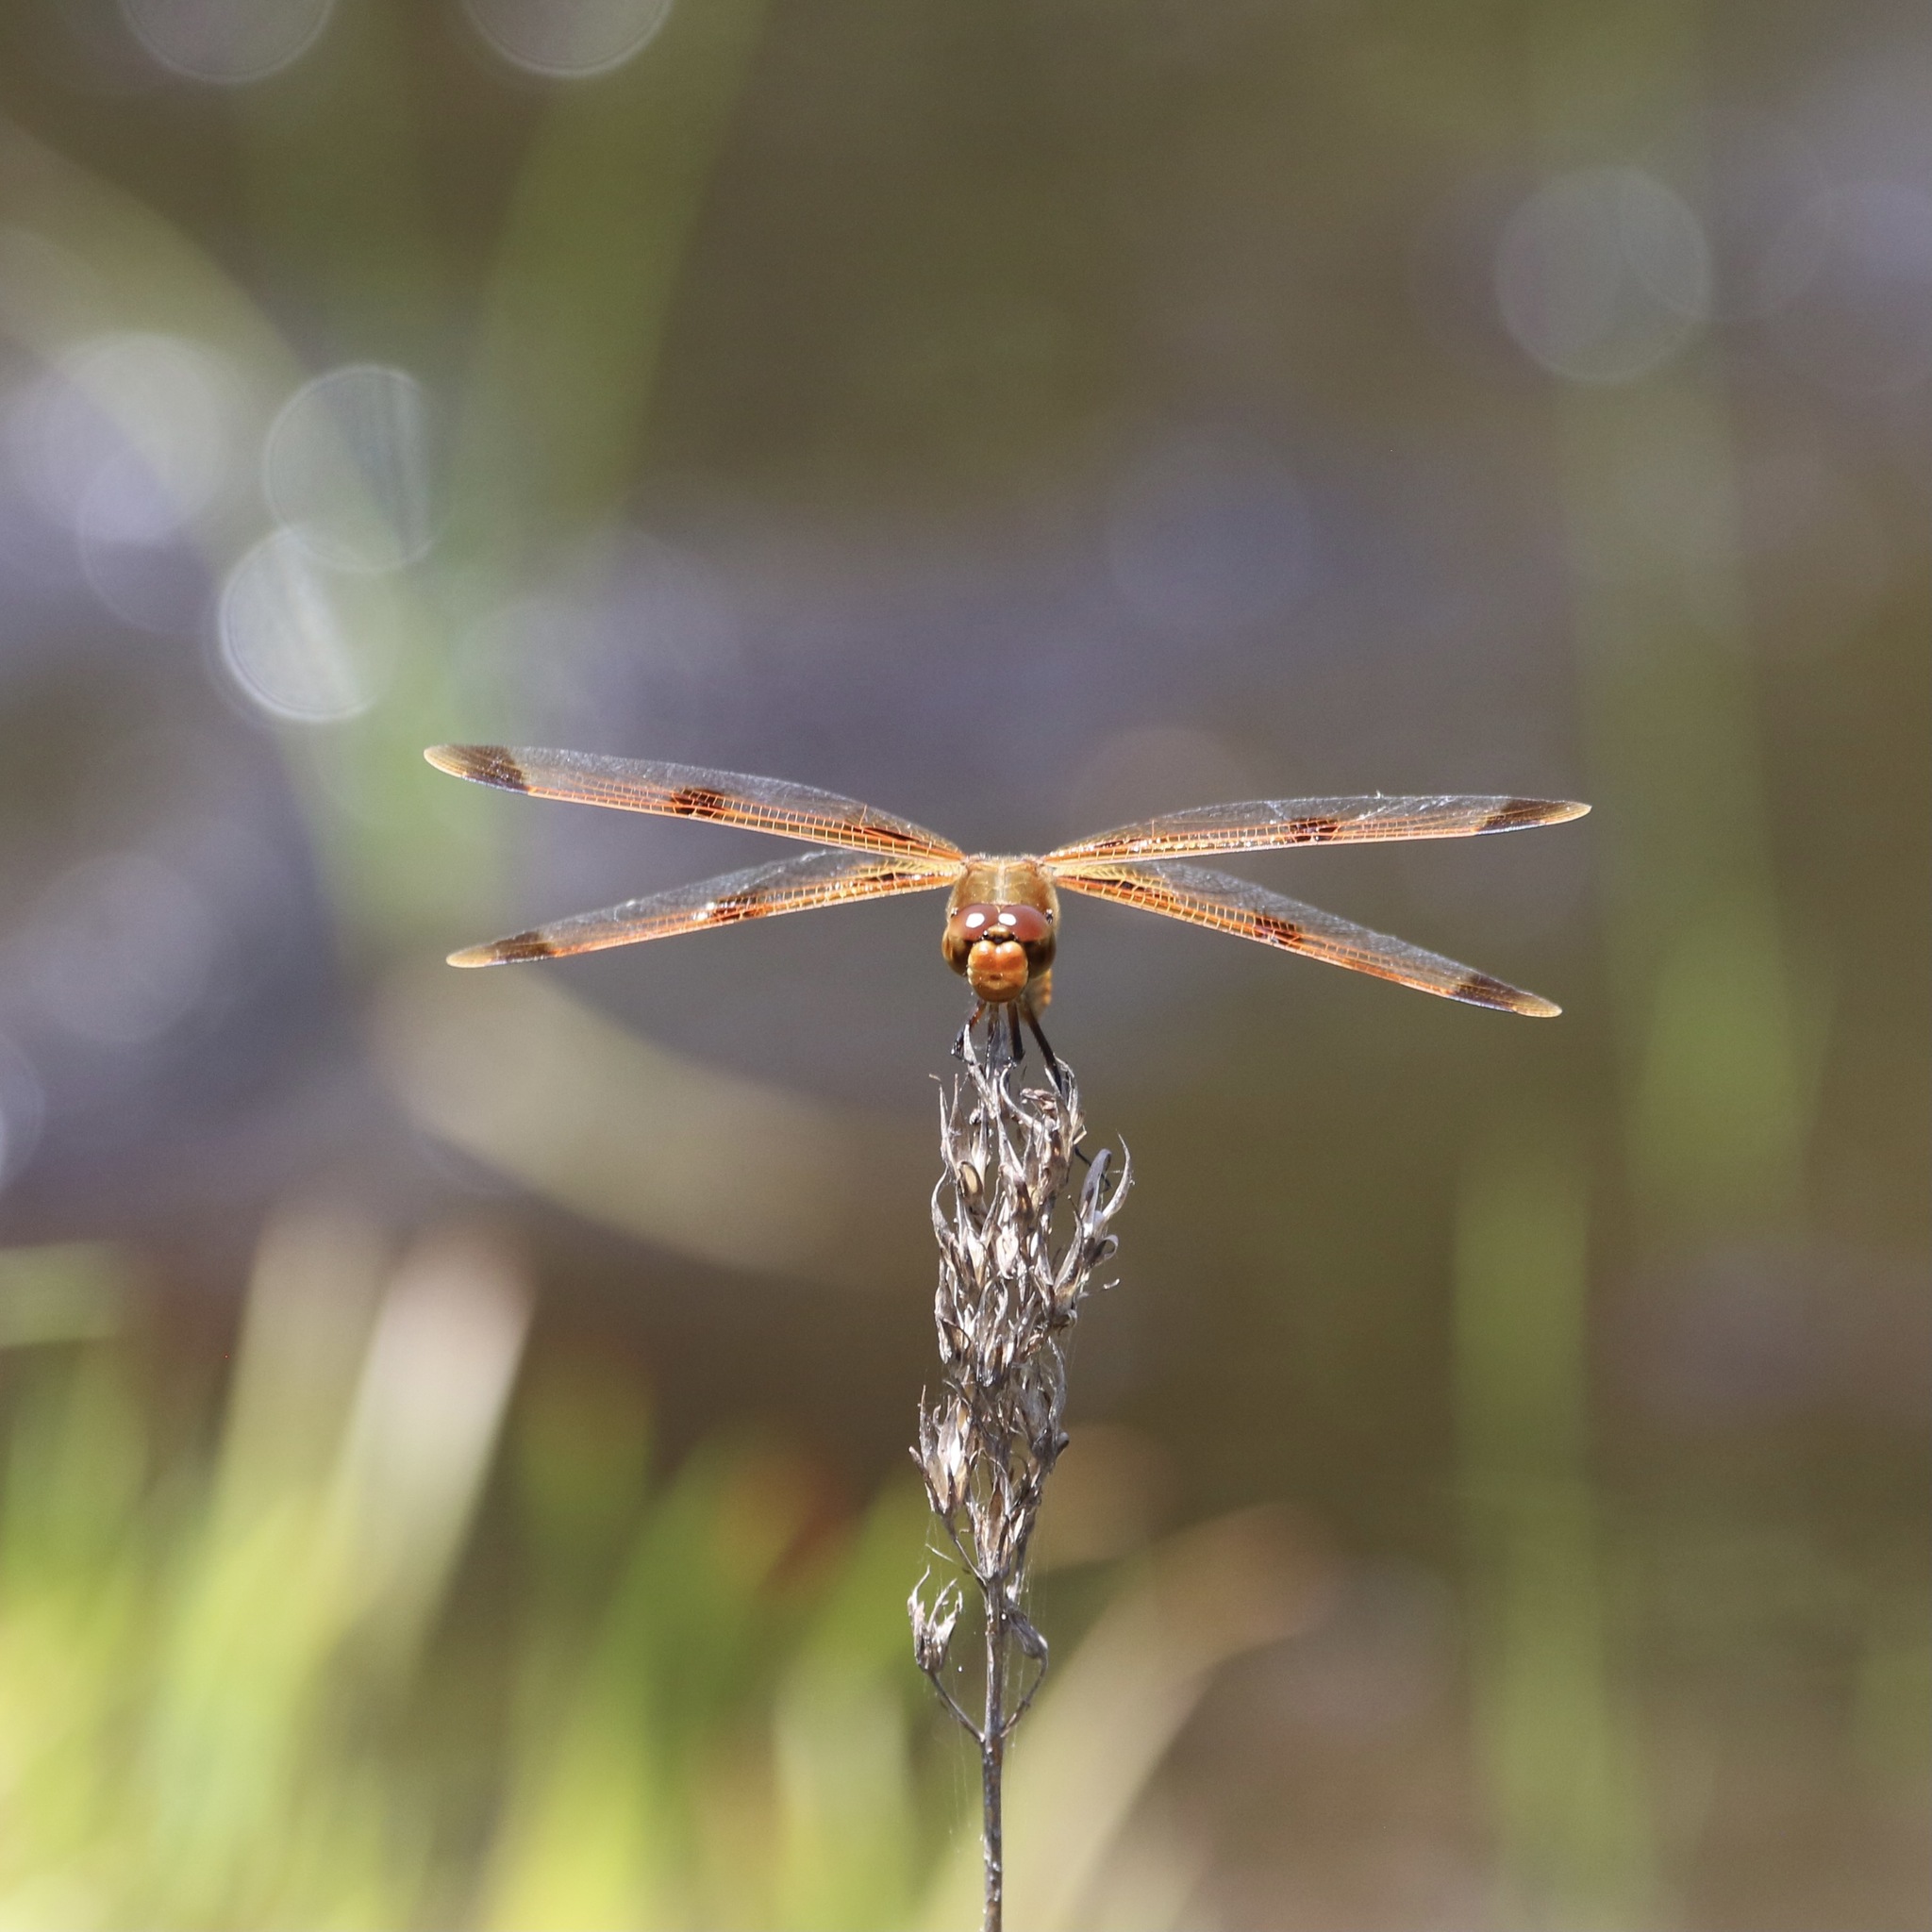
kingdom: Animalia
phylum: Arthropoda
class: Insecta
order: Odonata
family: Libellulidae
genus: Libellula
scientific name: Libellula semifasciata
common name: Painted skimmer
